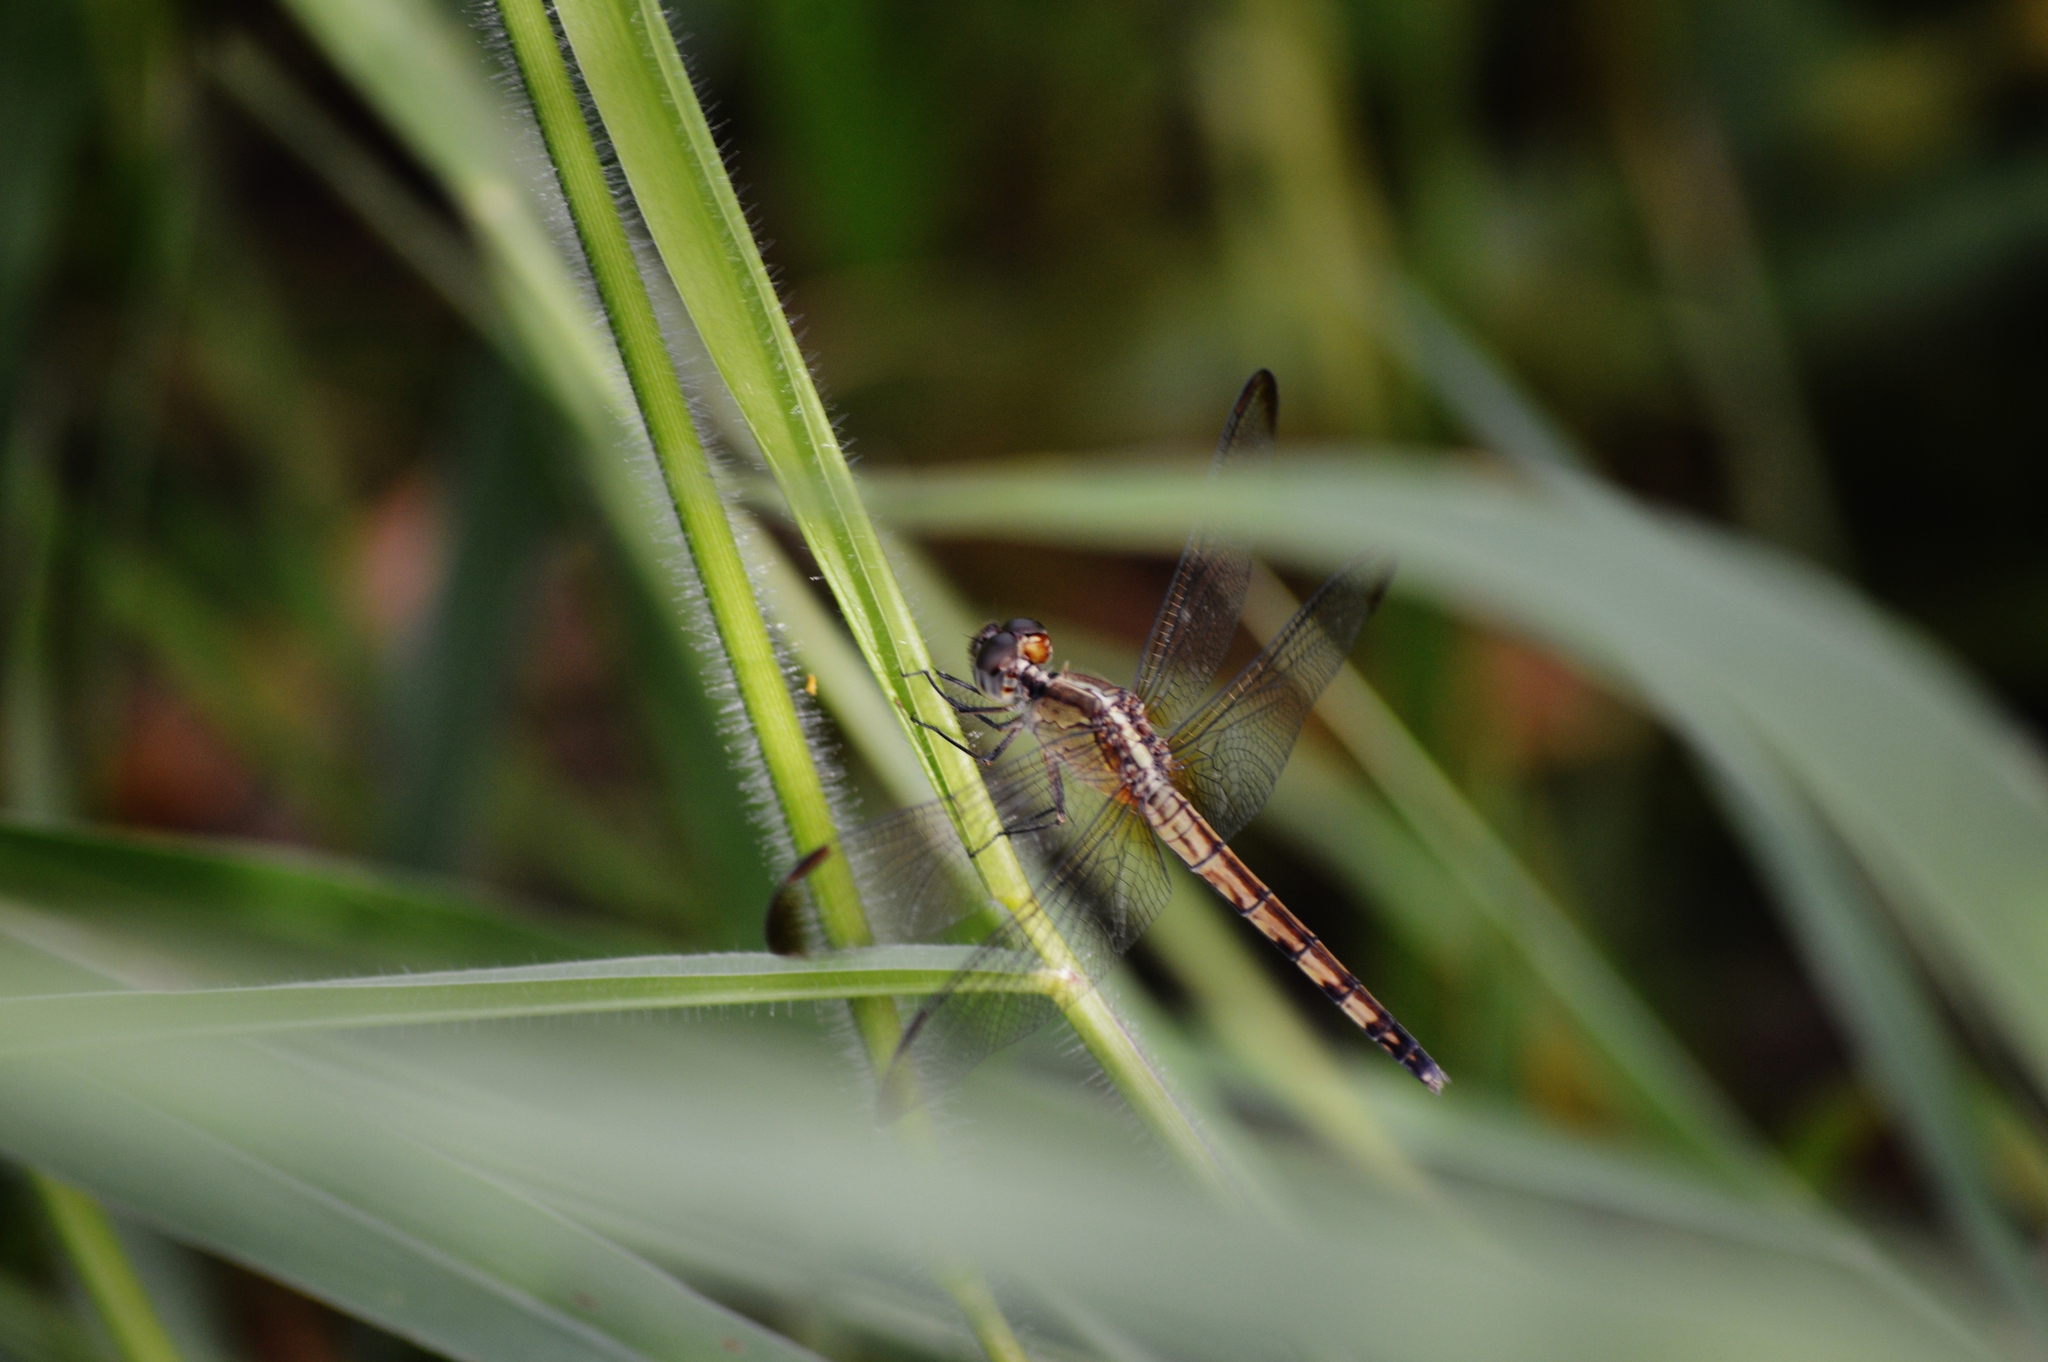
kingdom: Animalia
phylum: Arthropoda
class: Insecta
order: Odonata
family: Libellulidae
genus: Erythrodiplax
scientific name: Erythrodiplax umbrata
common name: Band-winged dragonlet
